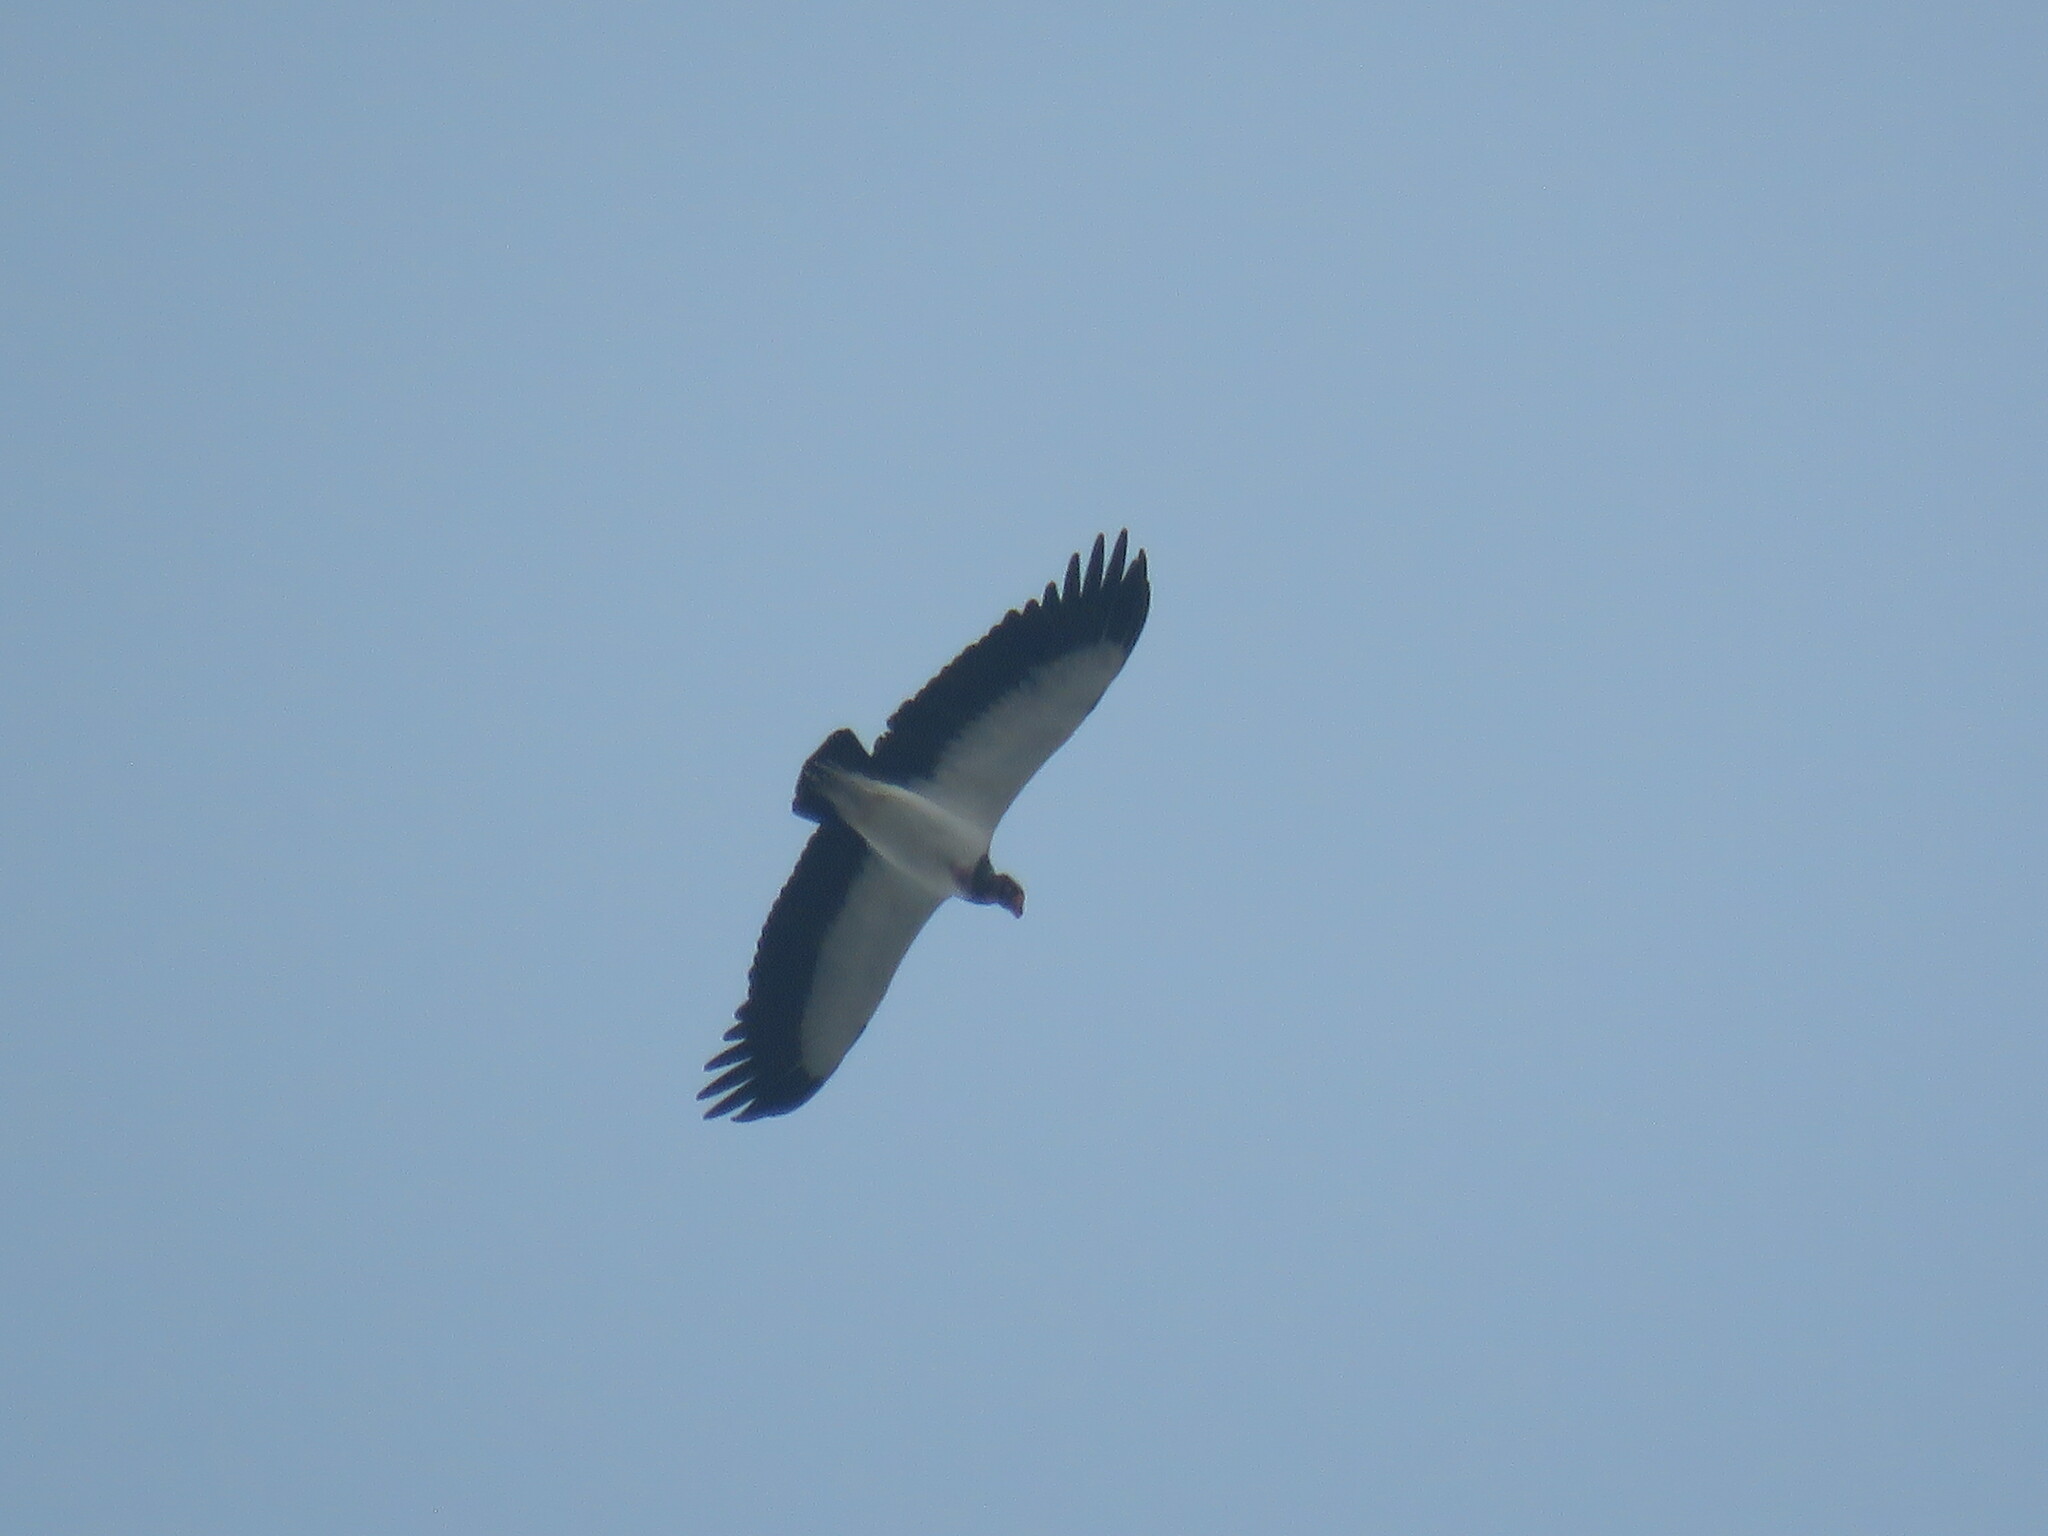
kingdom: Animalia
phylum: Chordata
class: Aves
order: Accipitriformes
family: Cathartidae
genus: Sarcoramphus
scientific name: Sarcoramphus papa
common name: King vulture
